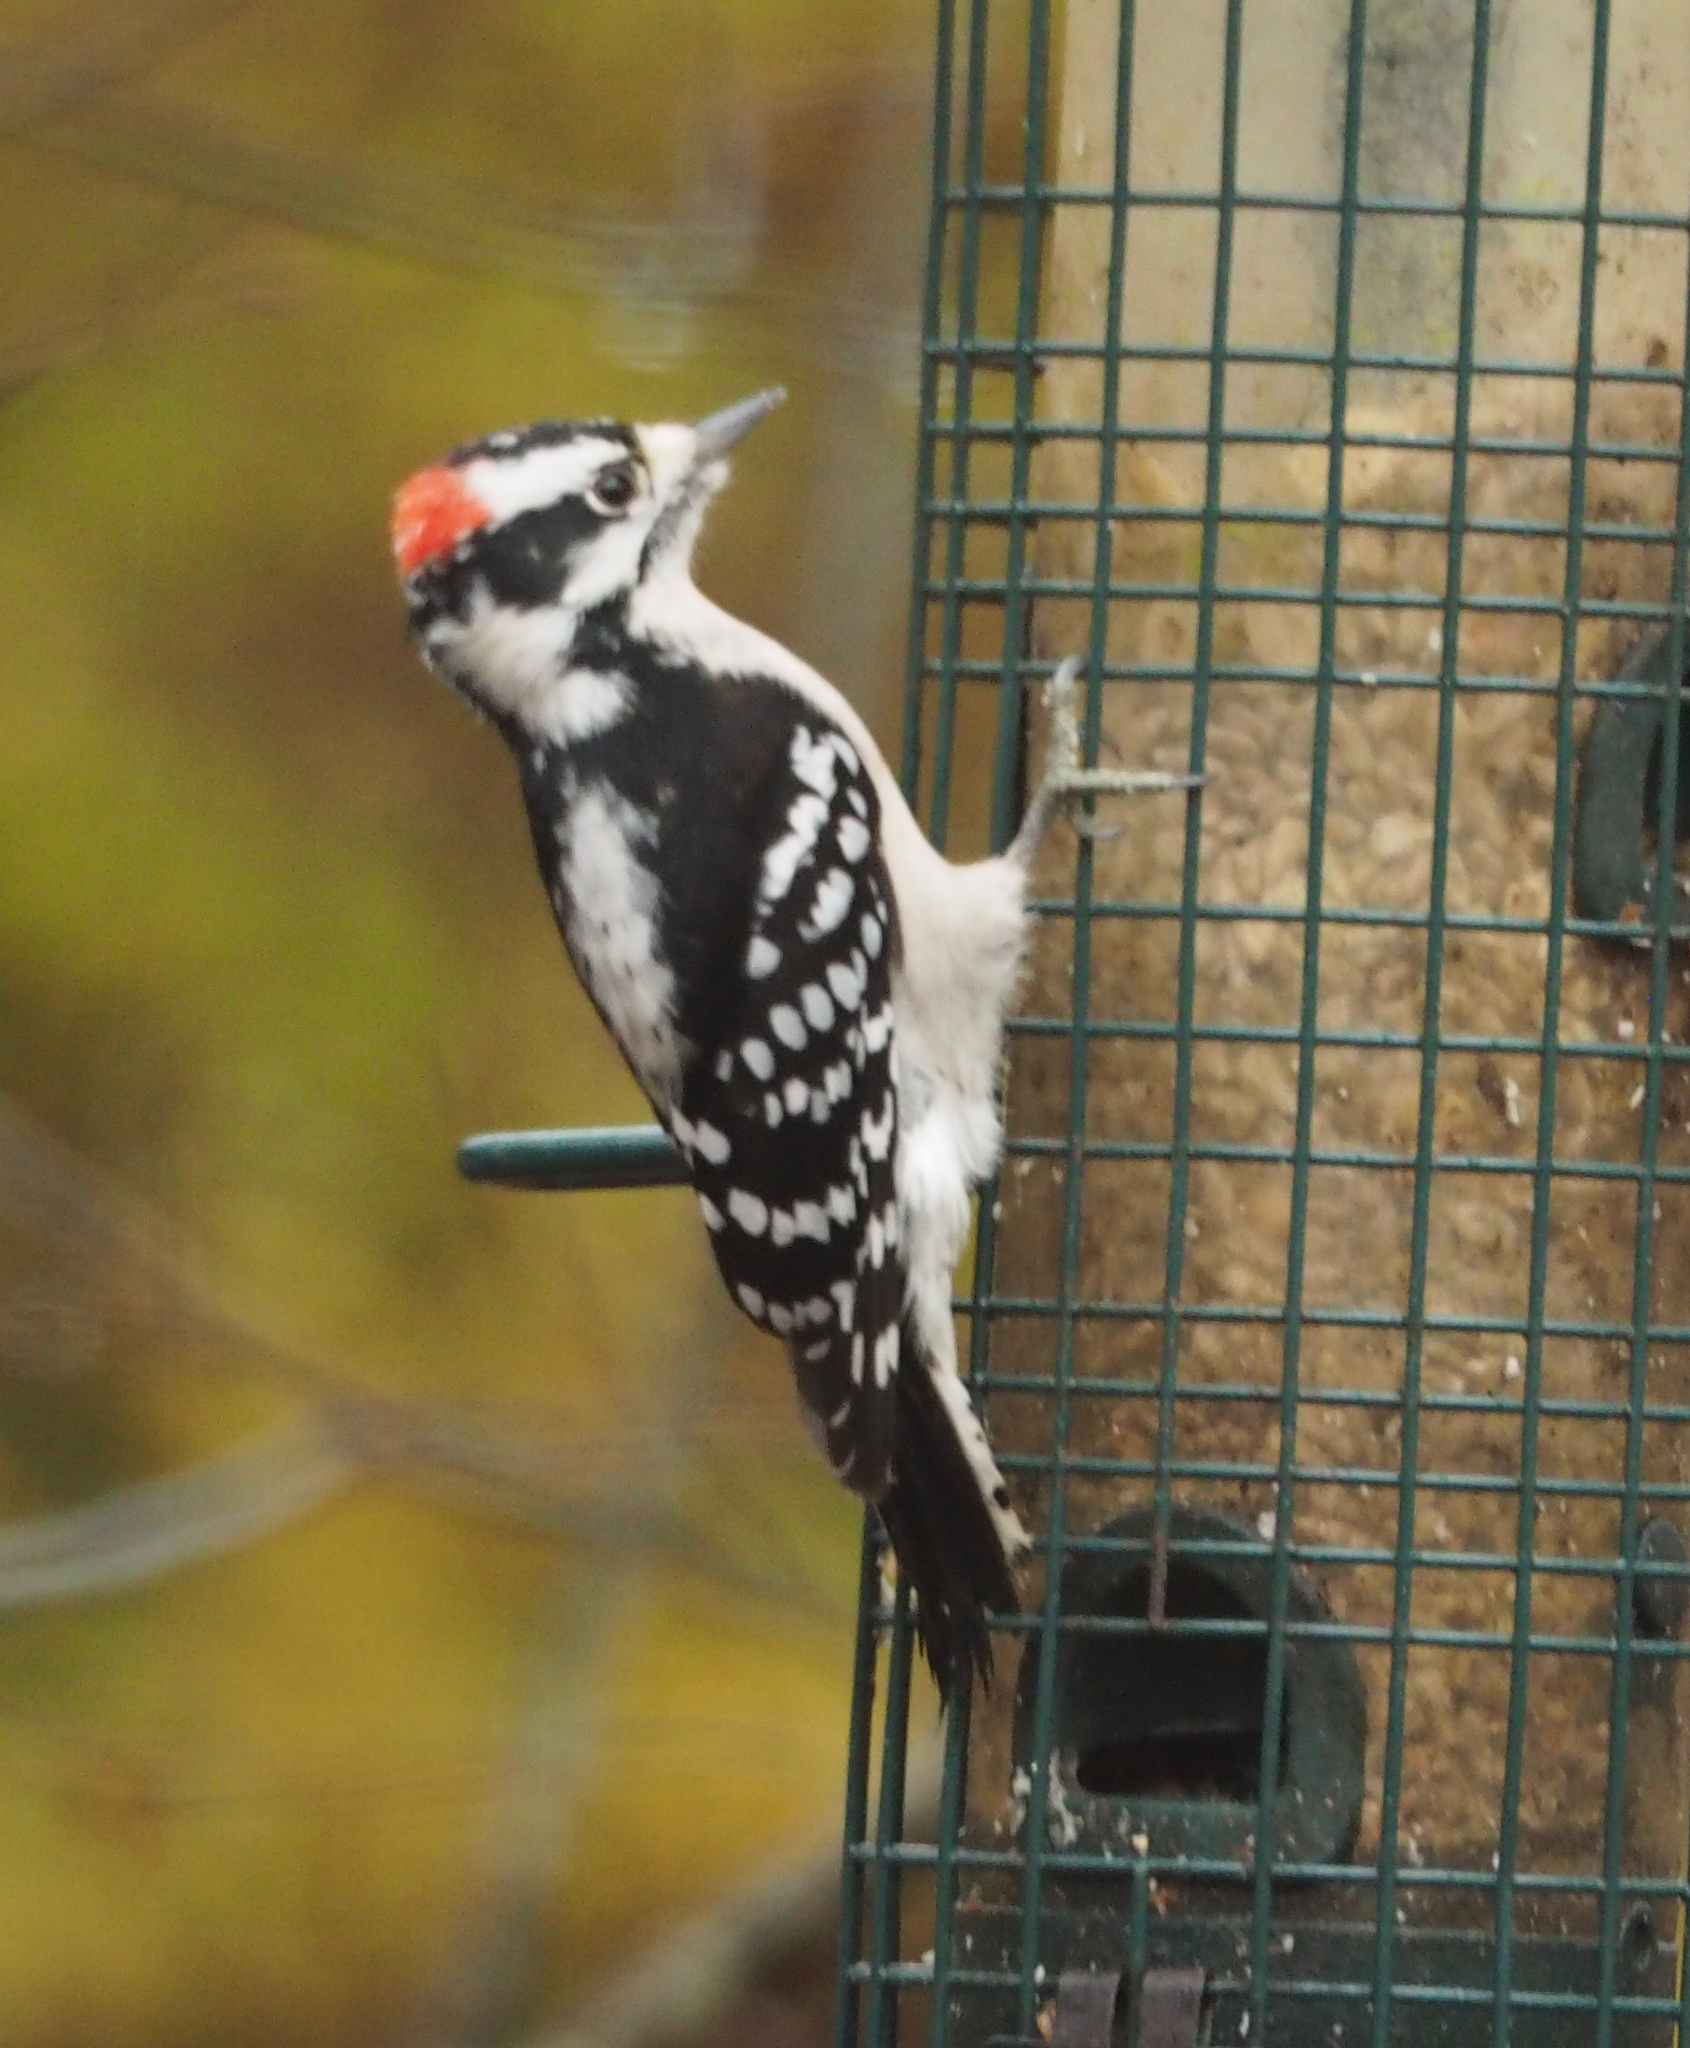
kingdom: Animalia
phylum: Chordata
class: Aves
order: Piciformes
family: Picidae
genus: Dryobates
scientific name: Dryobates pubescens
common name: Downy woodpecker
